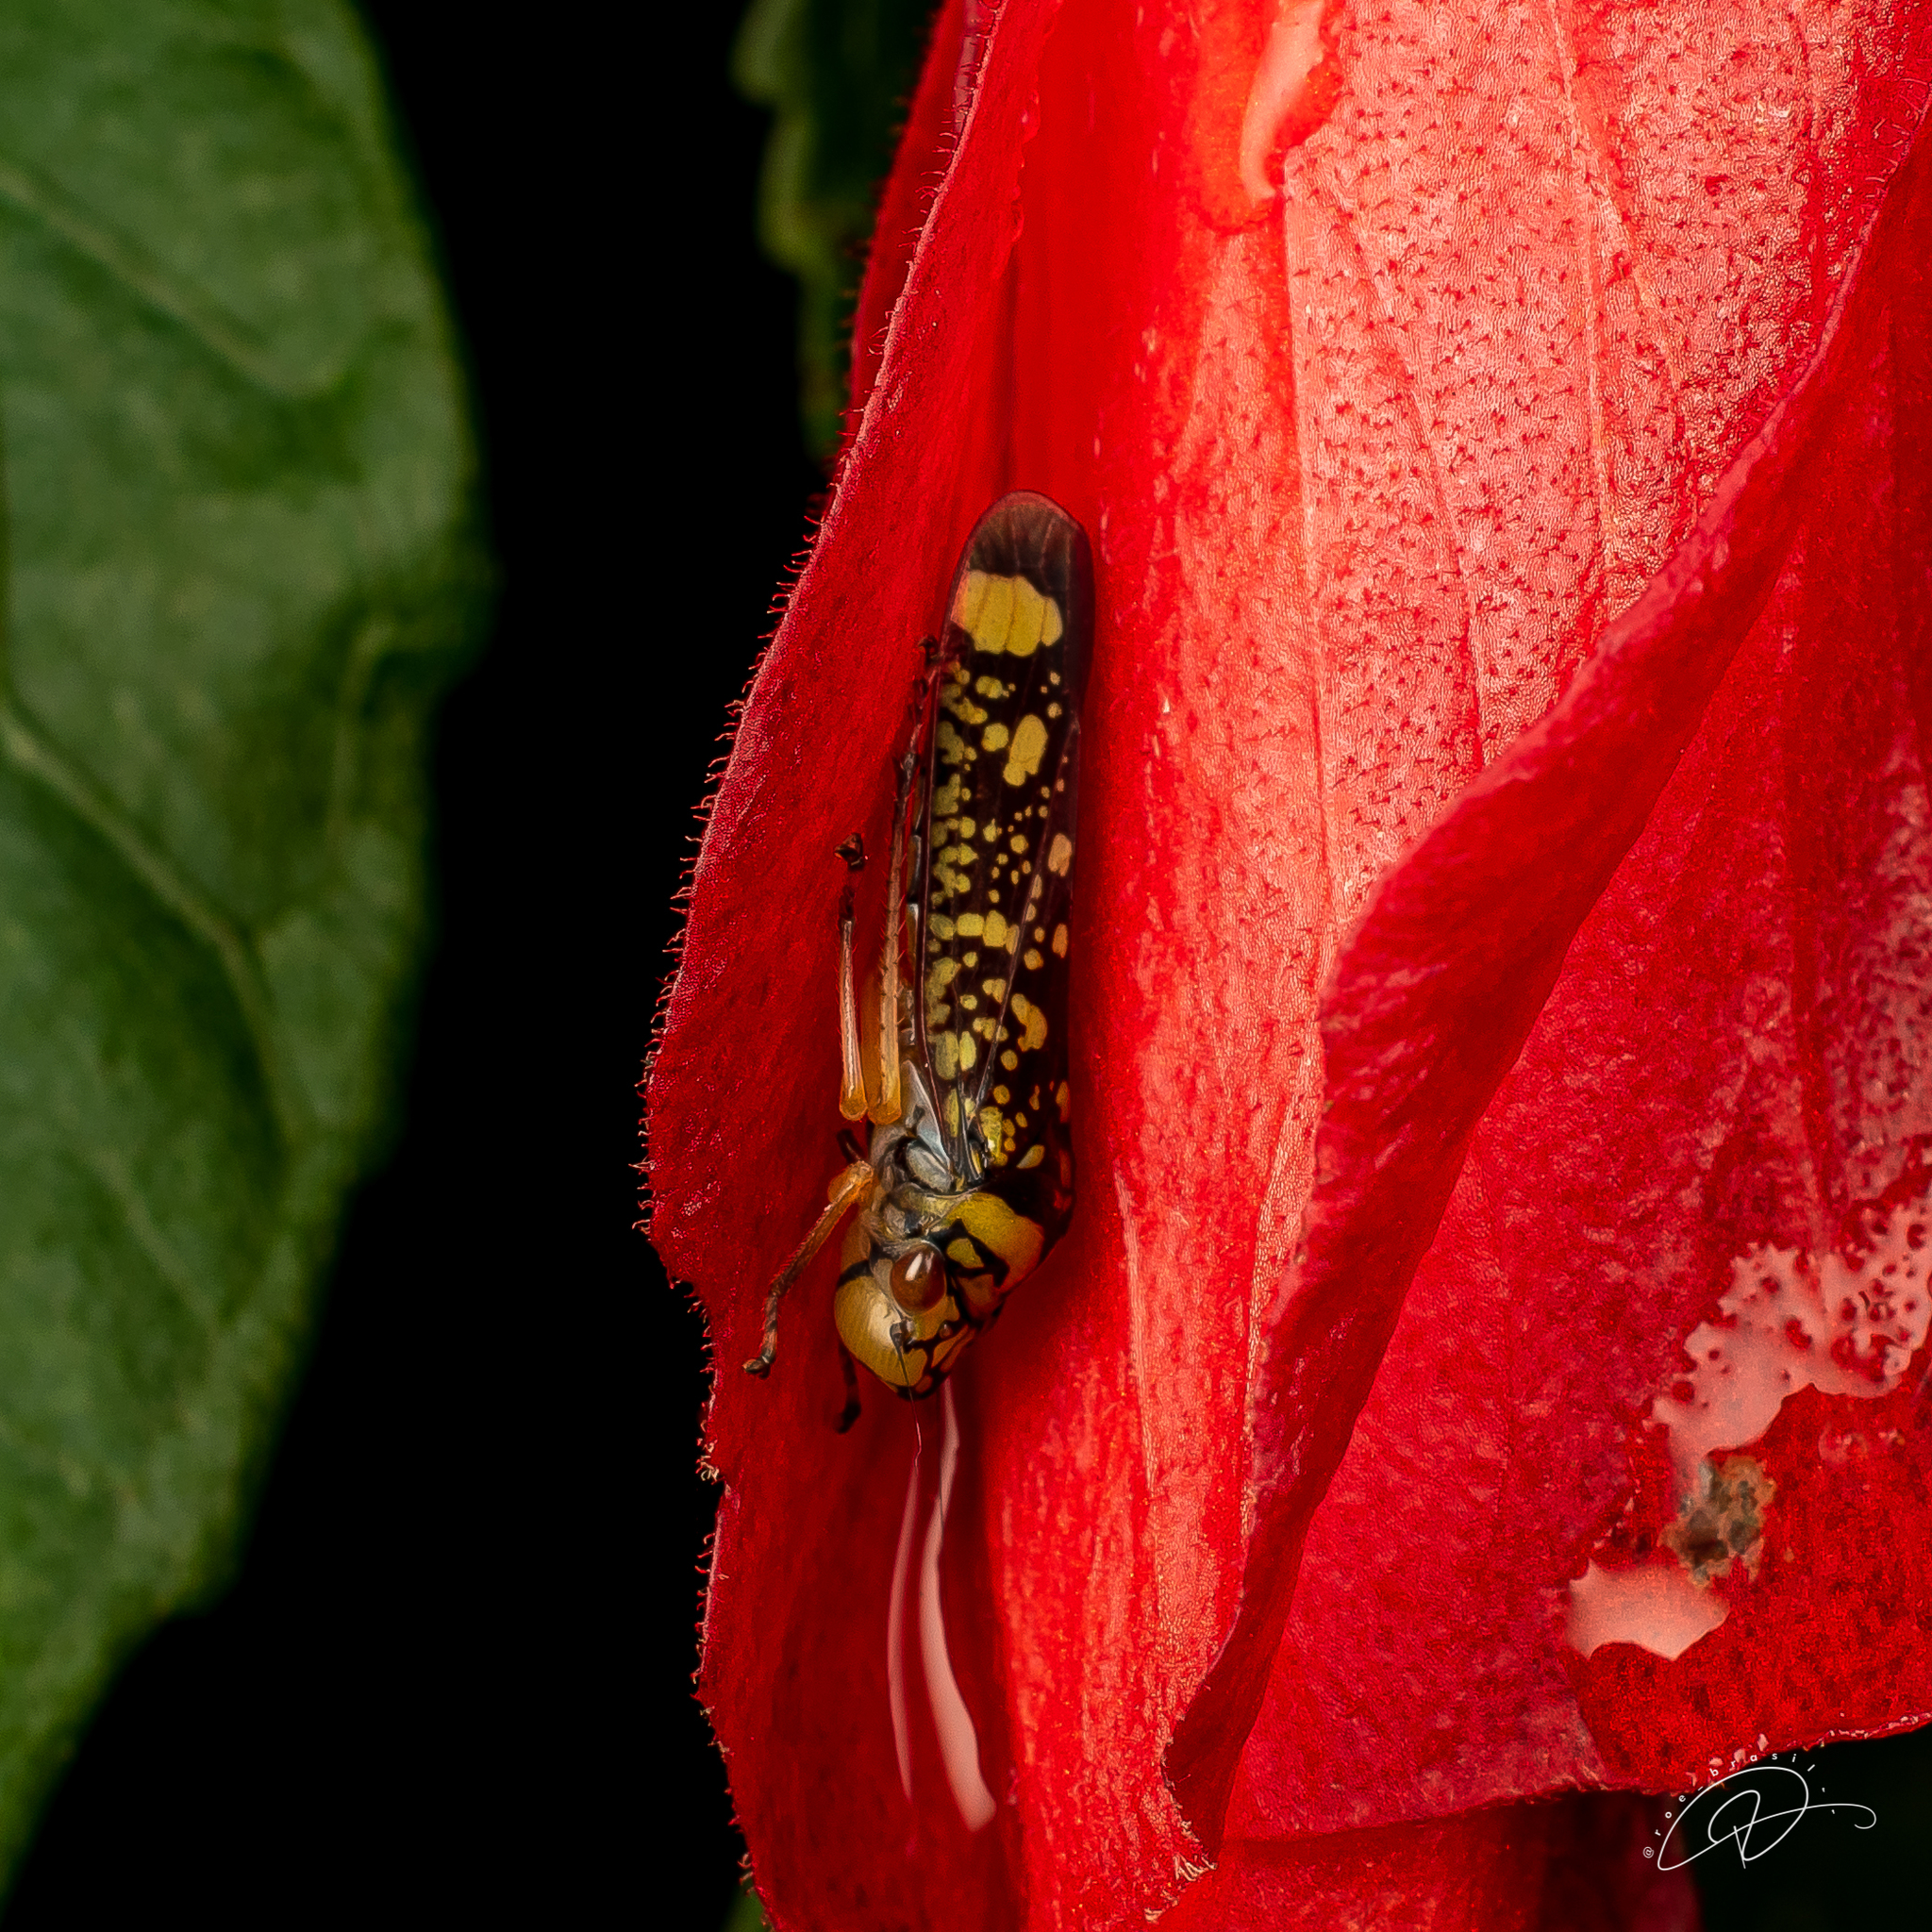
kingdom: Animalia
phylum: Arthropoda
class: Insecta
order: Hemiptera
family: Cicadellidae
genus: Aulacizes
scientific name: Aulacizes conspersa
